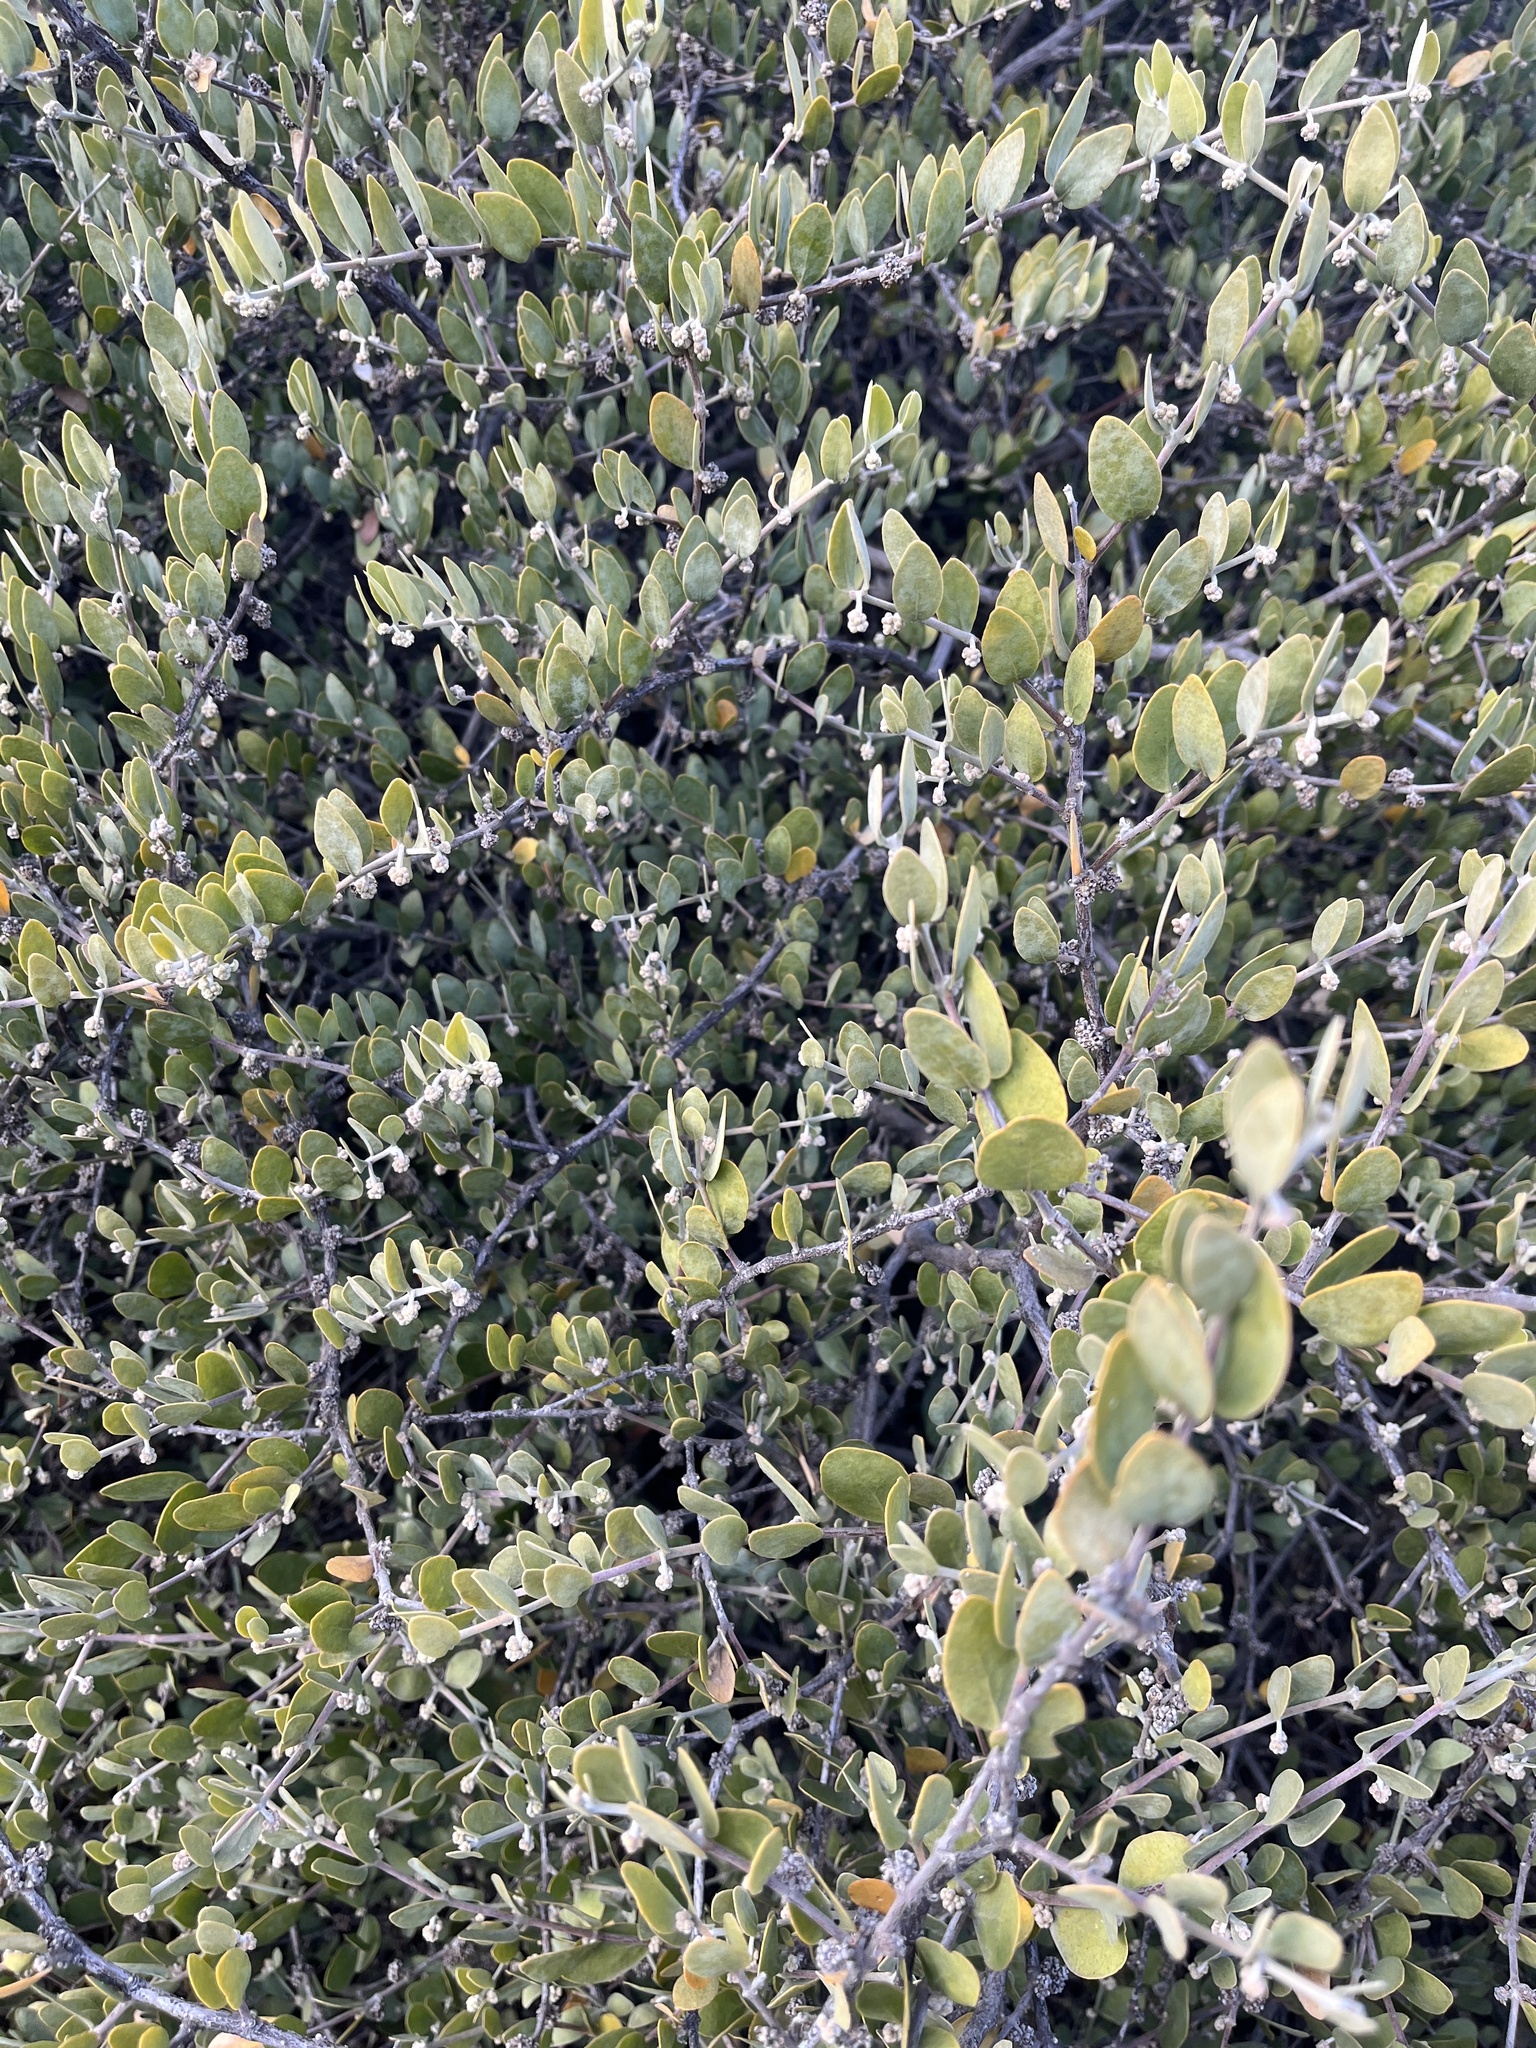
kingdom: Plantae
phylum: Tracheophyta
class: Magnoliopsida
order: Caryophyllales
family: Simmondsiaceae
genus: Simmondsia
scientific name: Simmondsia chinensis
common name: Jojoba
